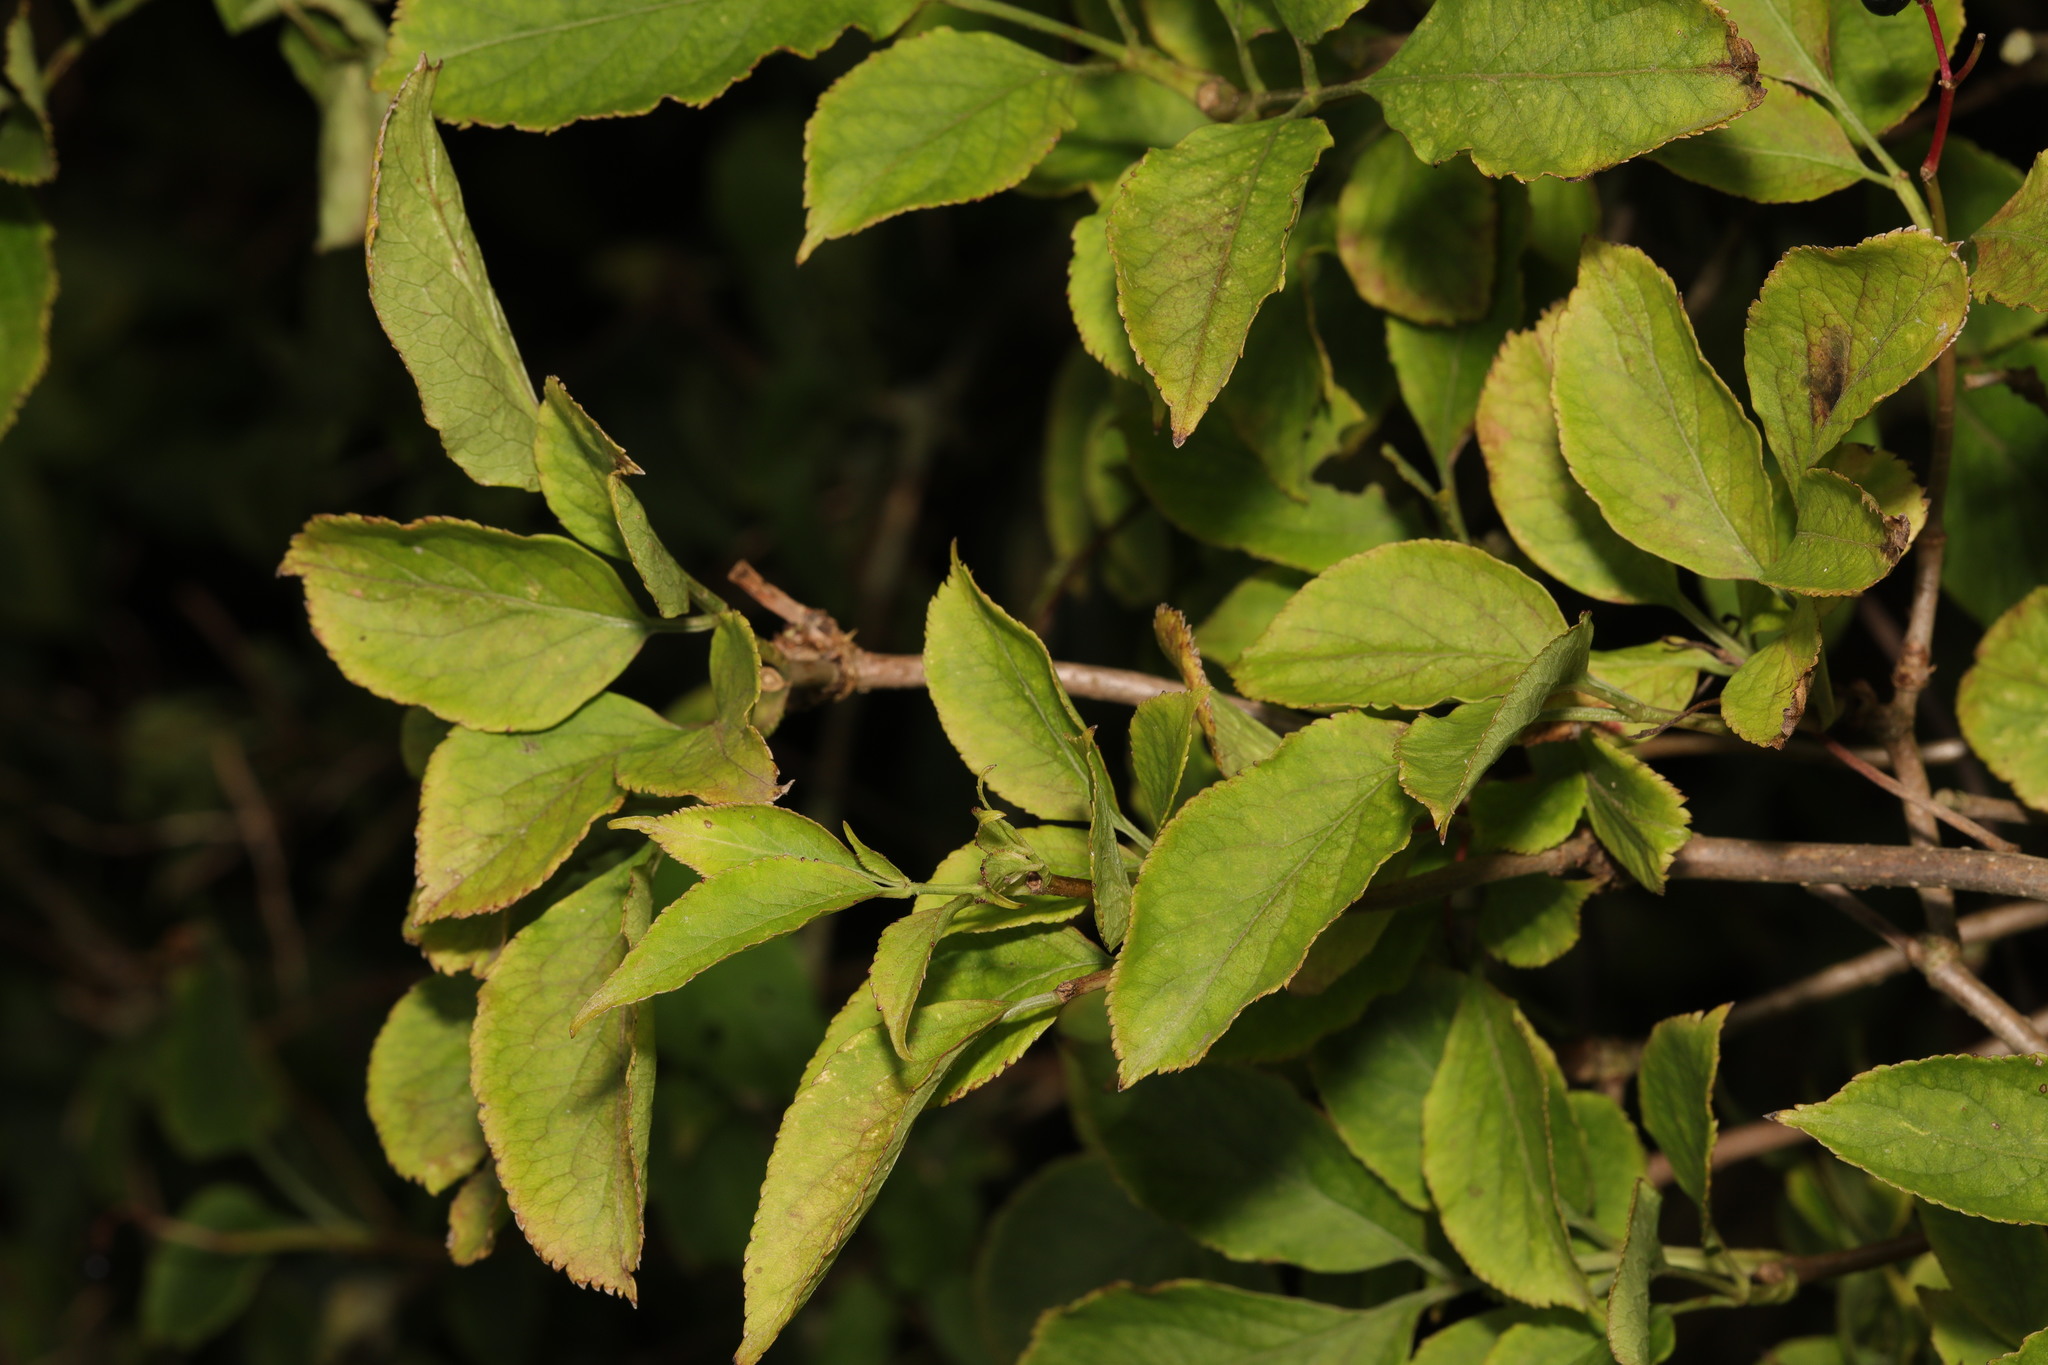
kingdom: Plantae
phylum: Tracheophyta
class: Magnoliopsida
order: Dipsacales
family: Viburnaceae
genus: Sambucus
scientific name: Sambucus nigra
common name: Elder
